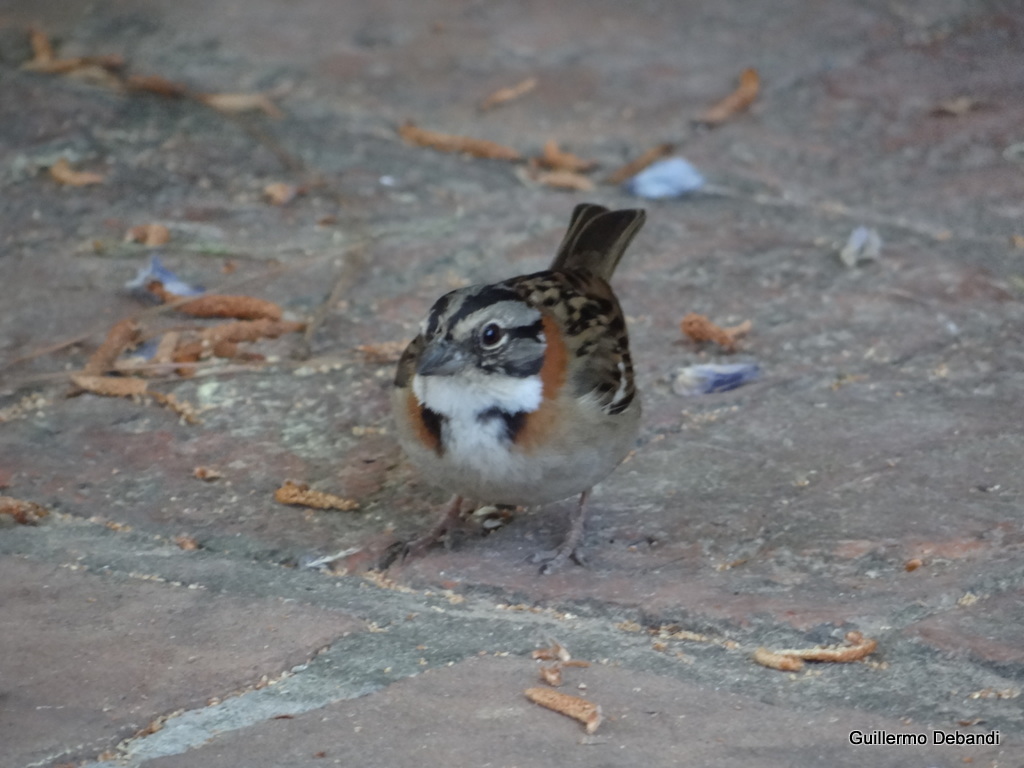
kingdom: Animalia
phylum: Chordata
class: Aves
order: Passeriformes
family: Passerellidae
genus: Zonotrichia
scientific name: Zonotrichia capensis
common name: Rufous-collared sparrow
